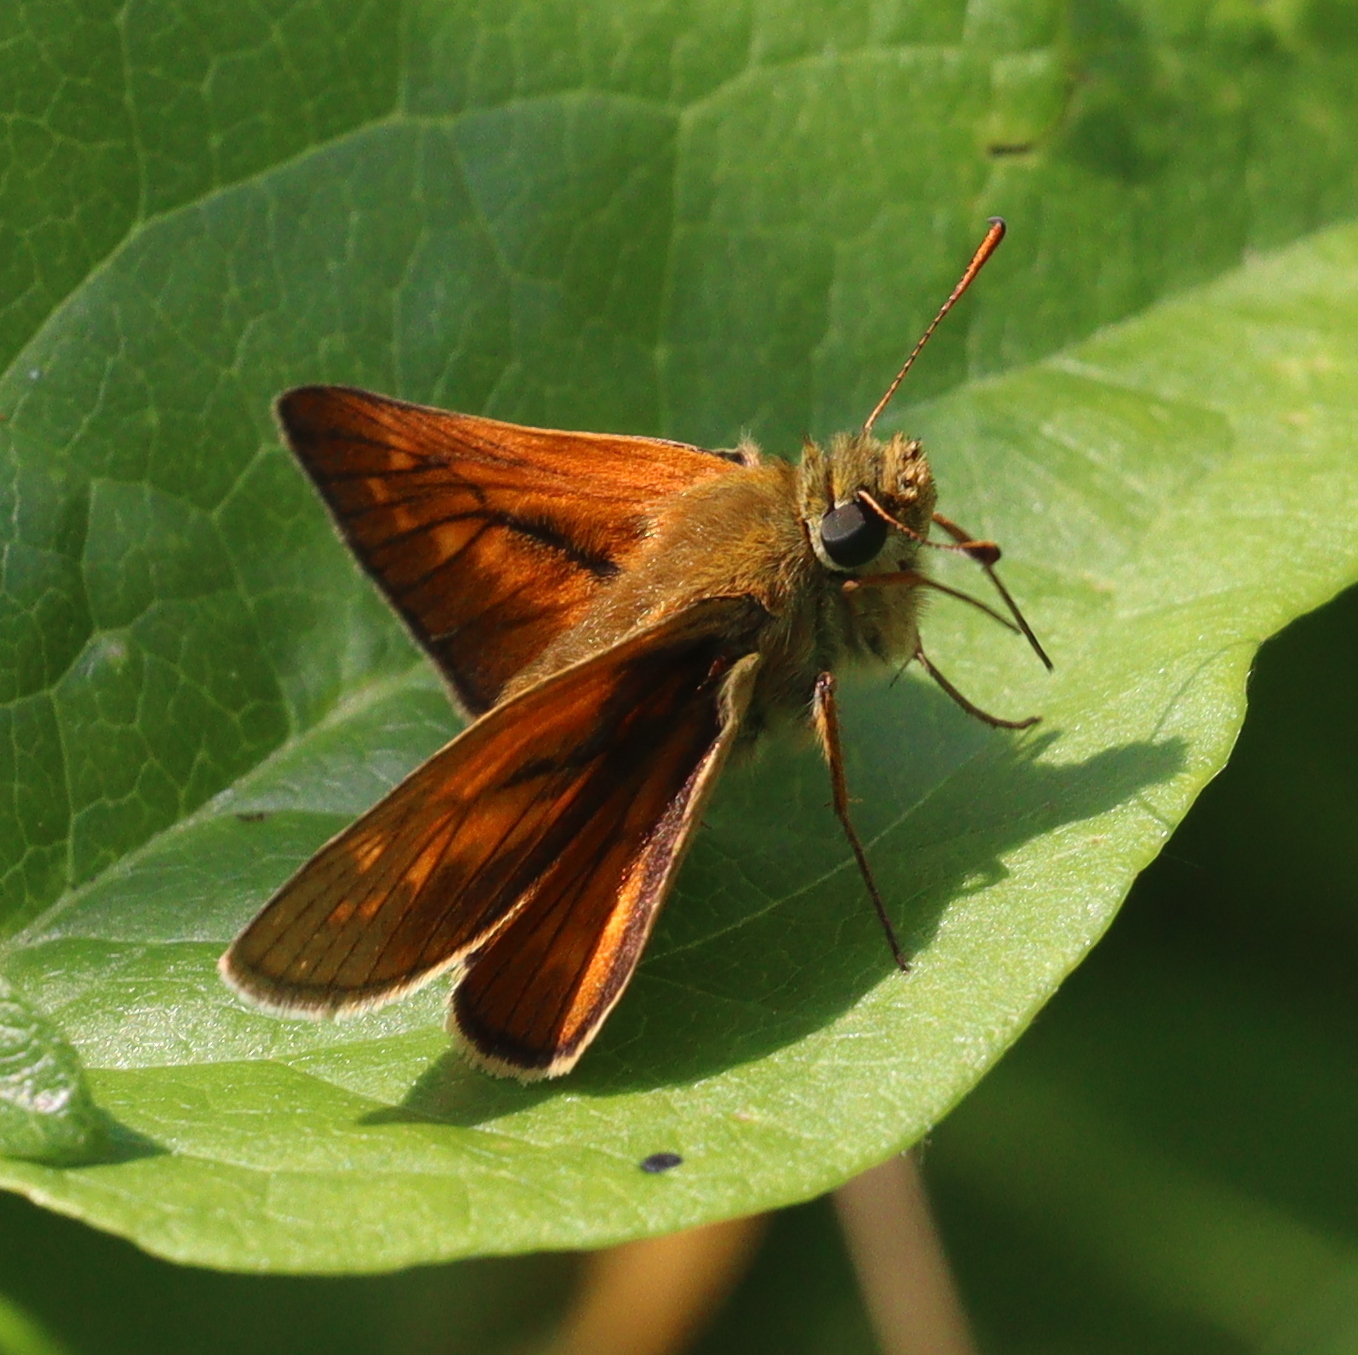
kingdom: Animalia
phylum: Arthropoda
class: Insecta
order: Lepidoptera
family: Hesperiidae
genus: Ochlodes
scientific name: Ochlodes venata
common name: Large skipper
